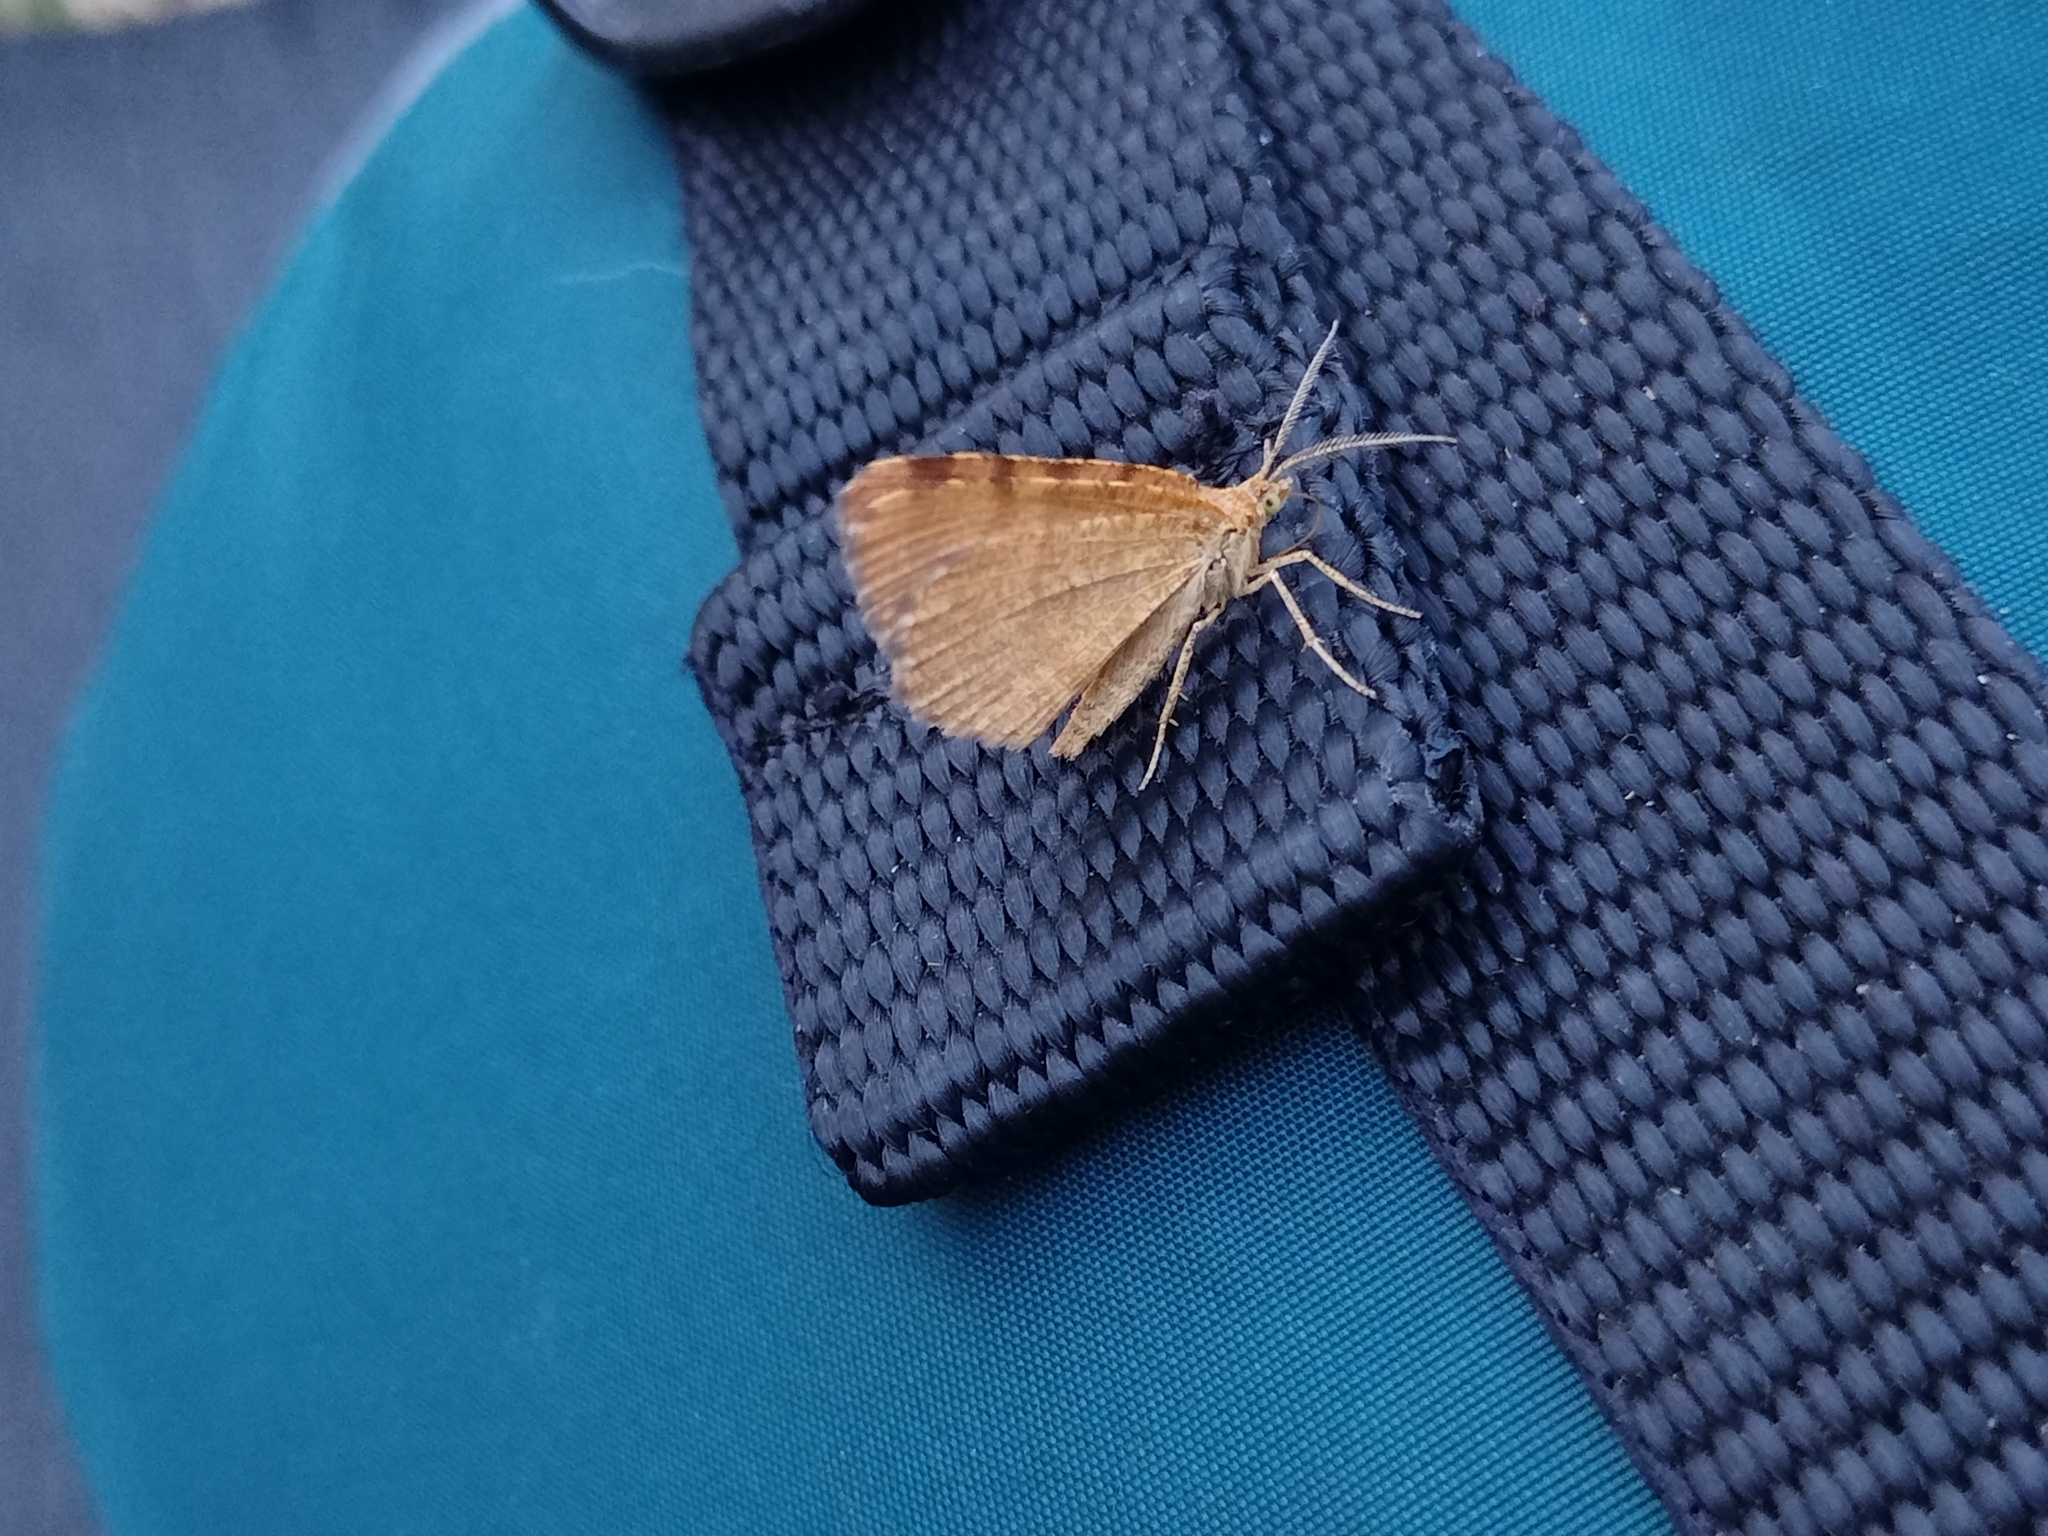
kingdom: Animalia
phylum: Arthropoda
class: Insecta
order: Lepidoptera
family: Geometridae
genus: Macaria
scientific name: Macaria brunneata
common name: Rannoch looper
